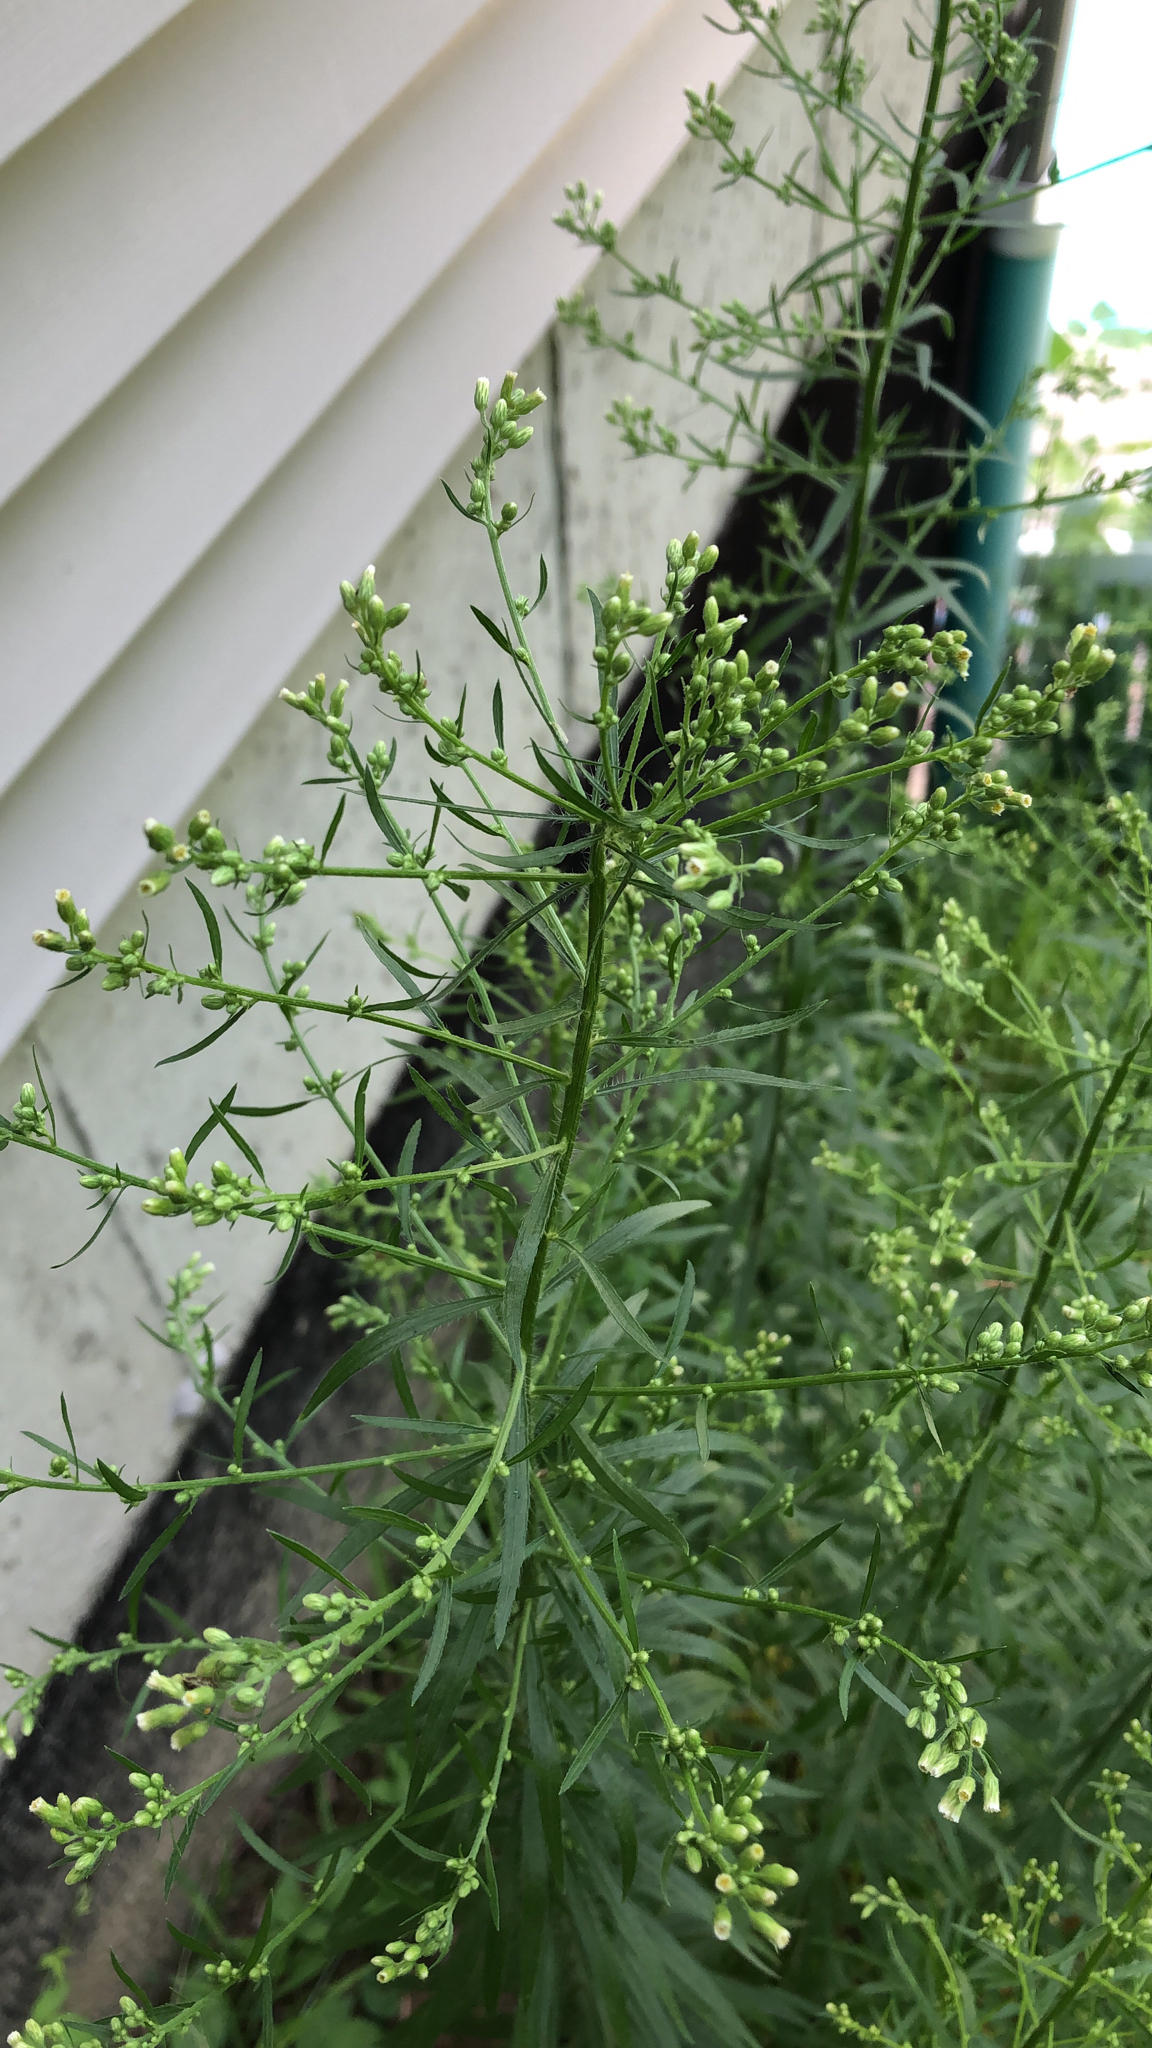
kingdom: Plantae
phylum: Tracheophyta
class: Magnoliopsida
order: Asterales
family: Asteraceae
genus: Erigeron
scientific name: Erigeron canadensis
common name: Canadian fleabane
